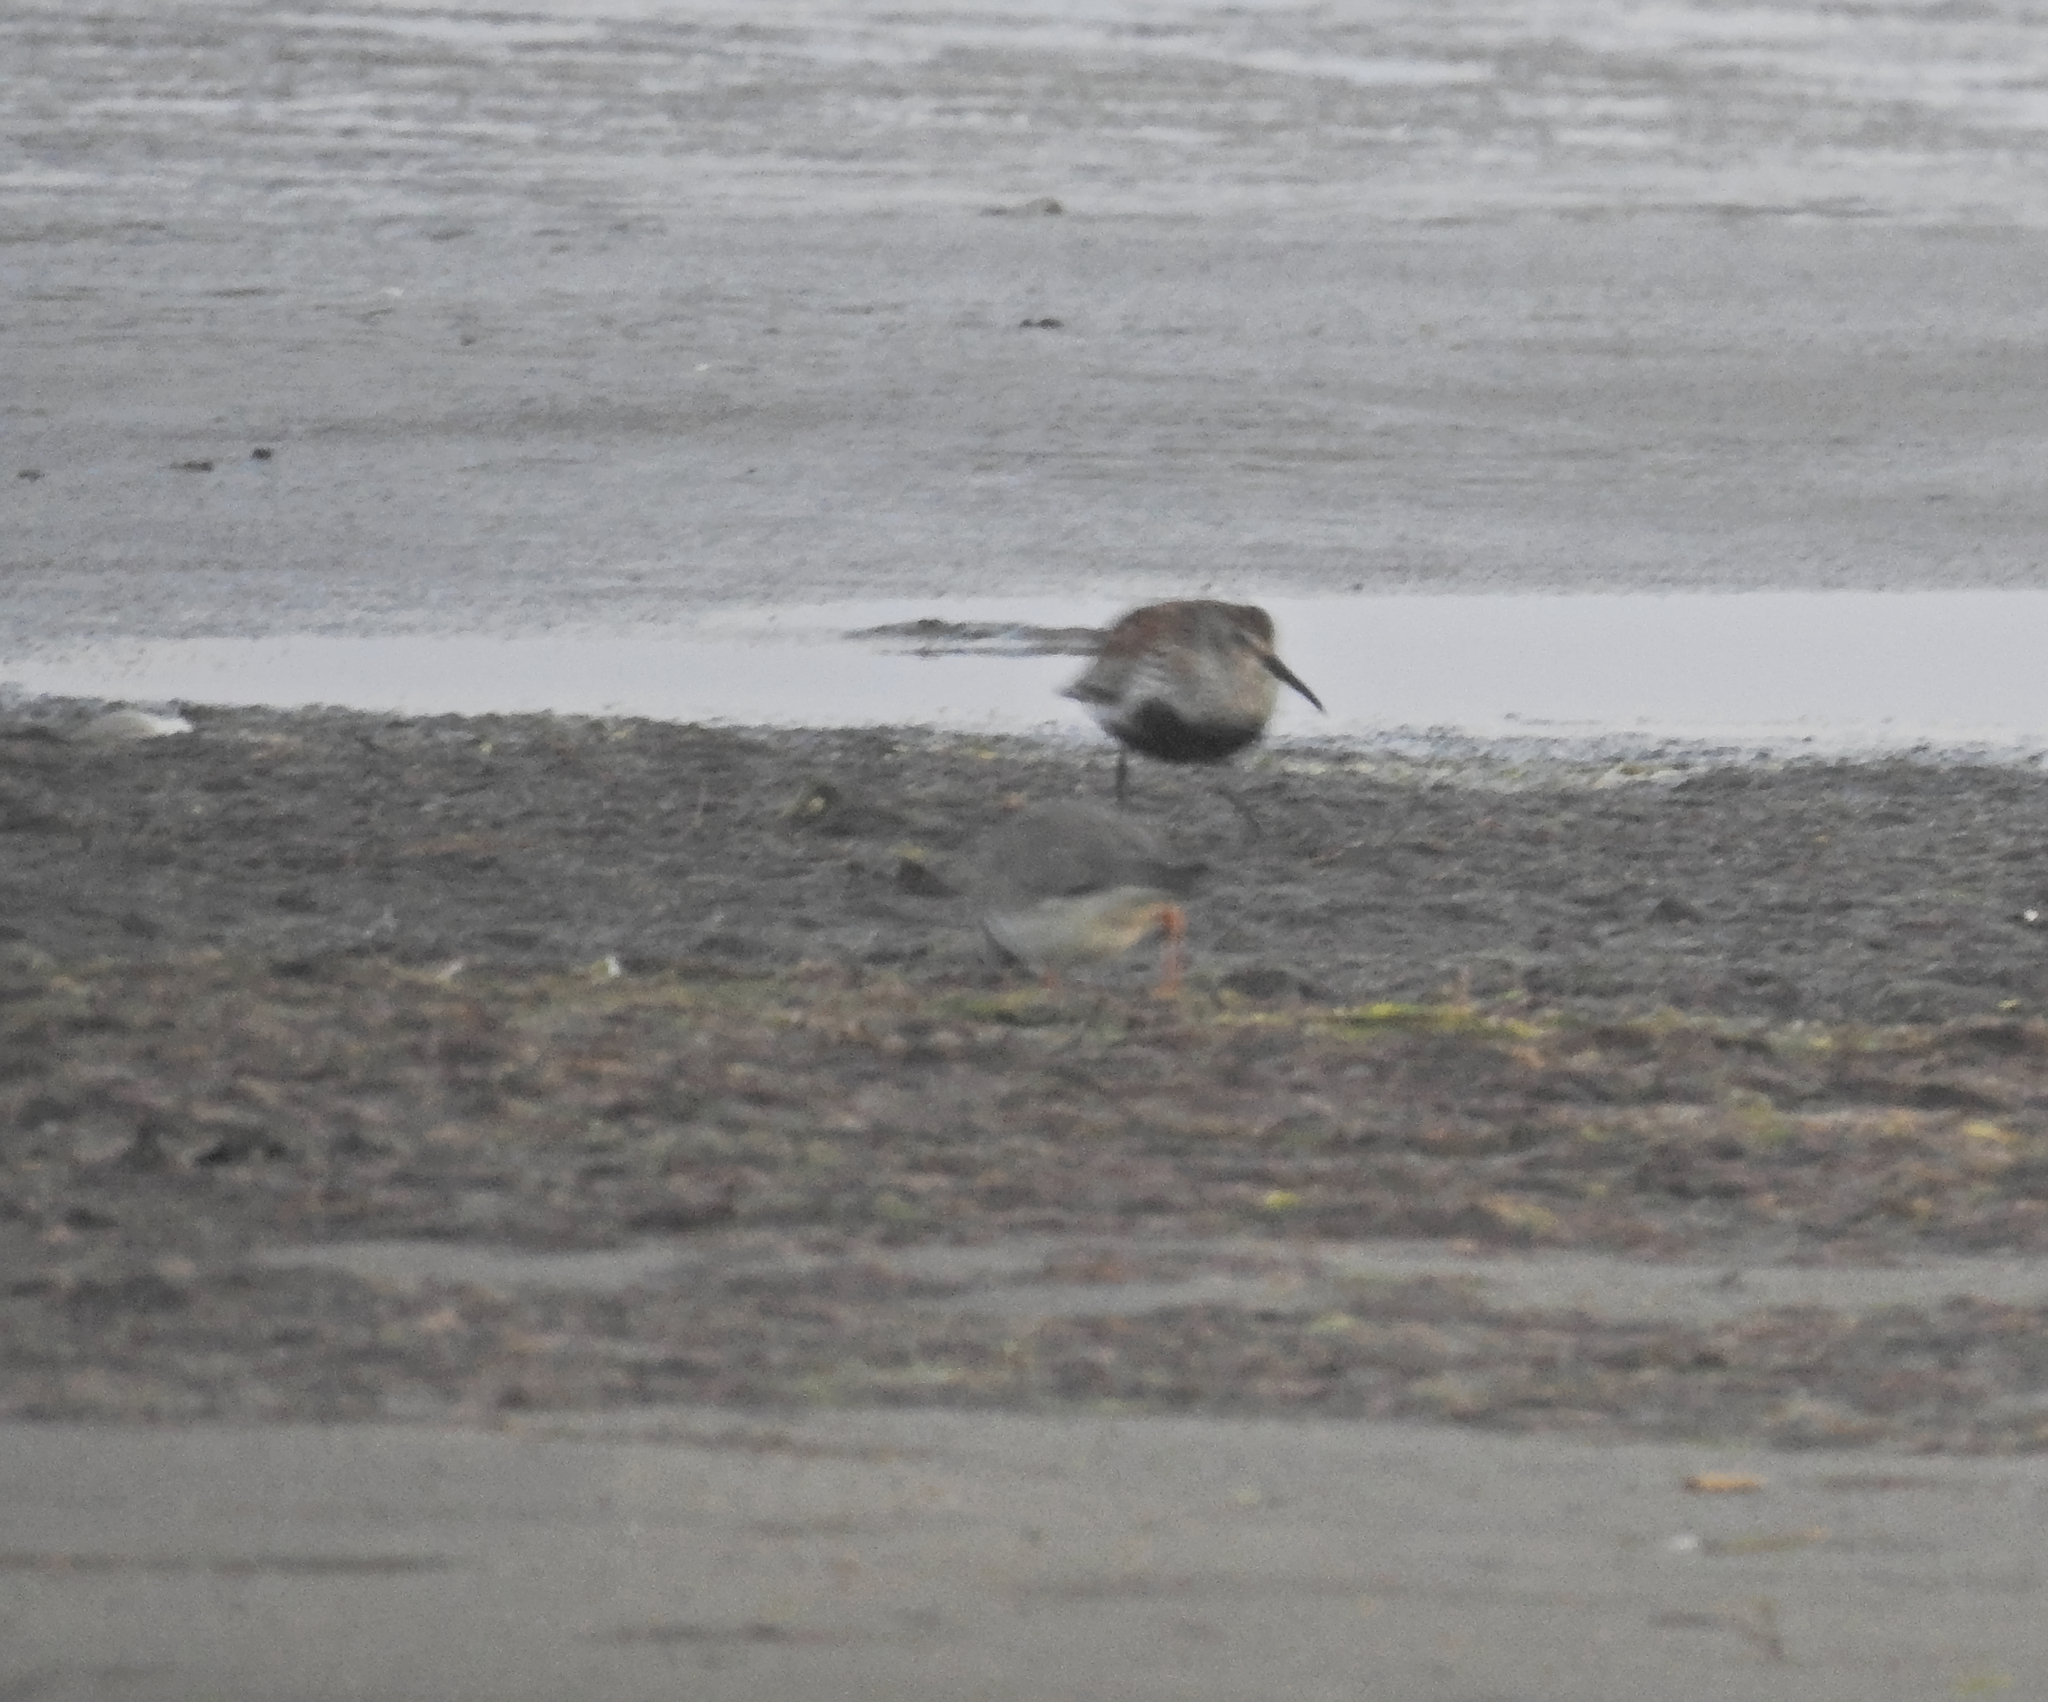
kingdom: Animalia
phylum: Chordata
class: Aves
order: Charadriiformes
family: Scolopacidae
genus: Calidris
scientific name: Calidris alpina
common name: Dunlin
